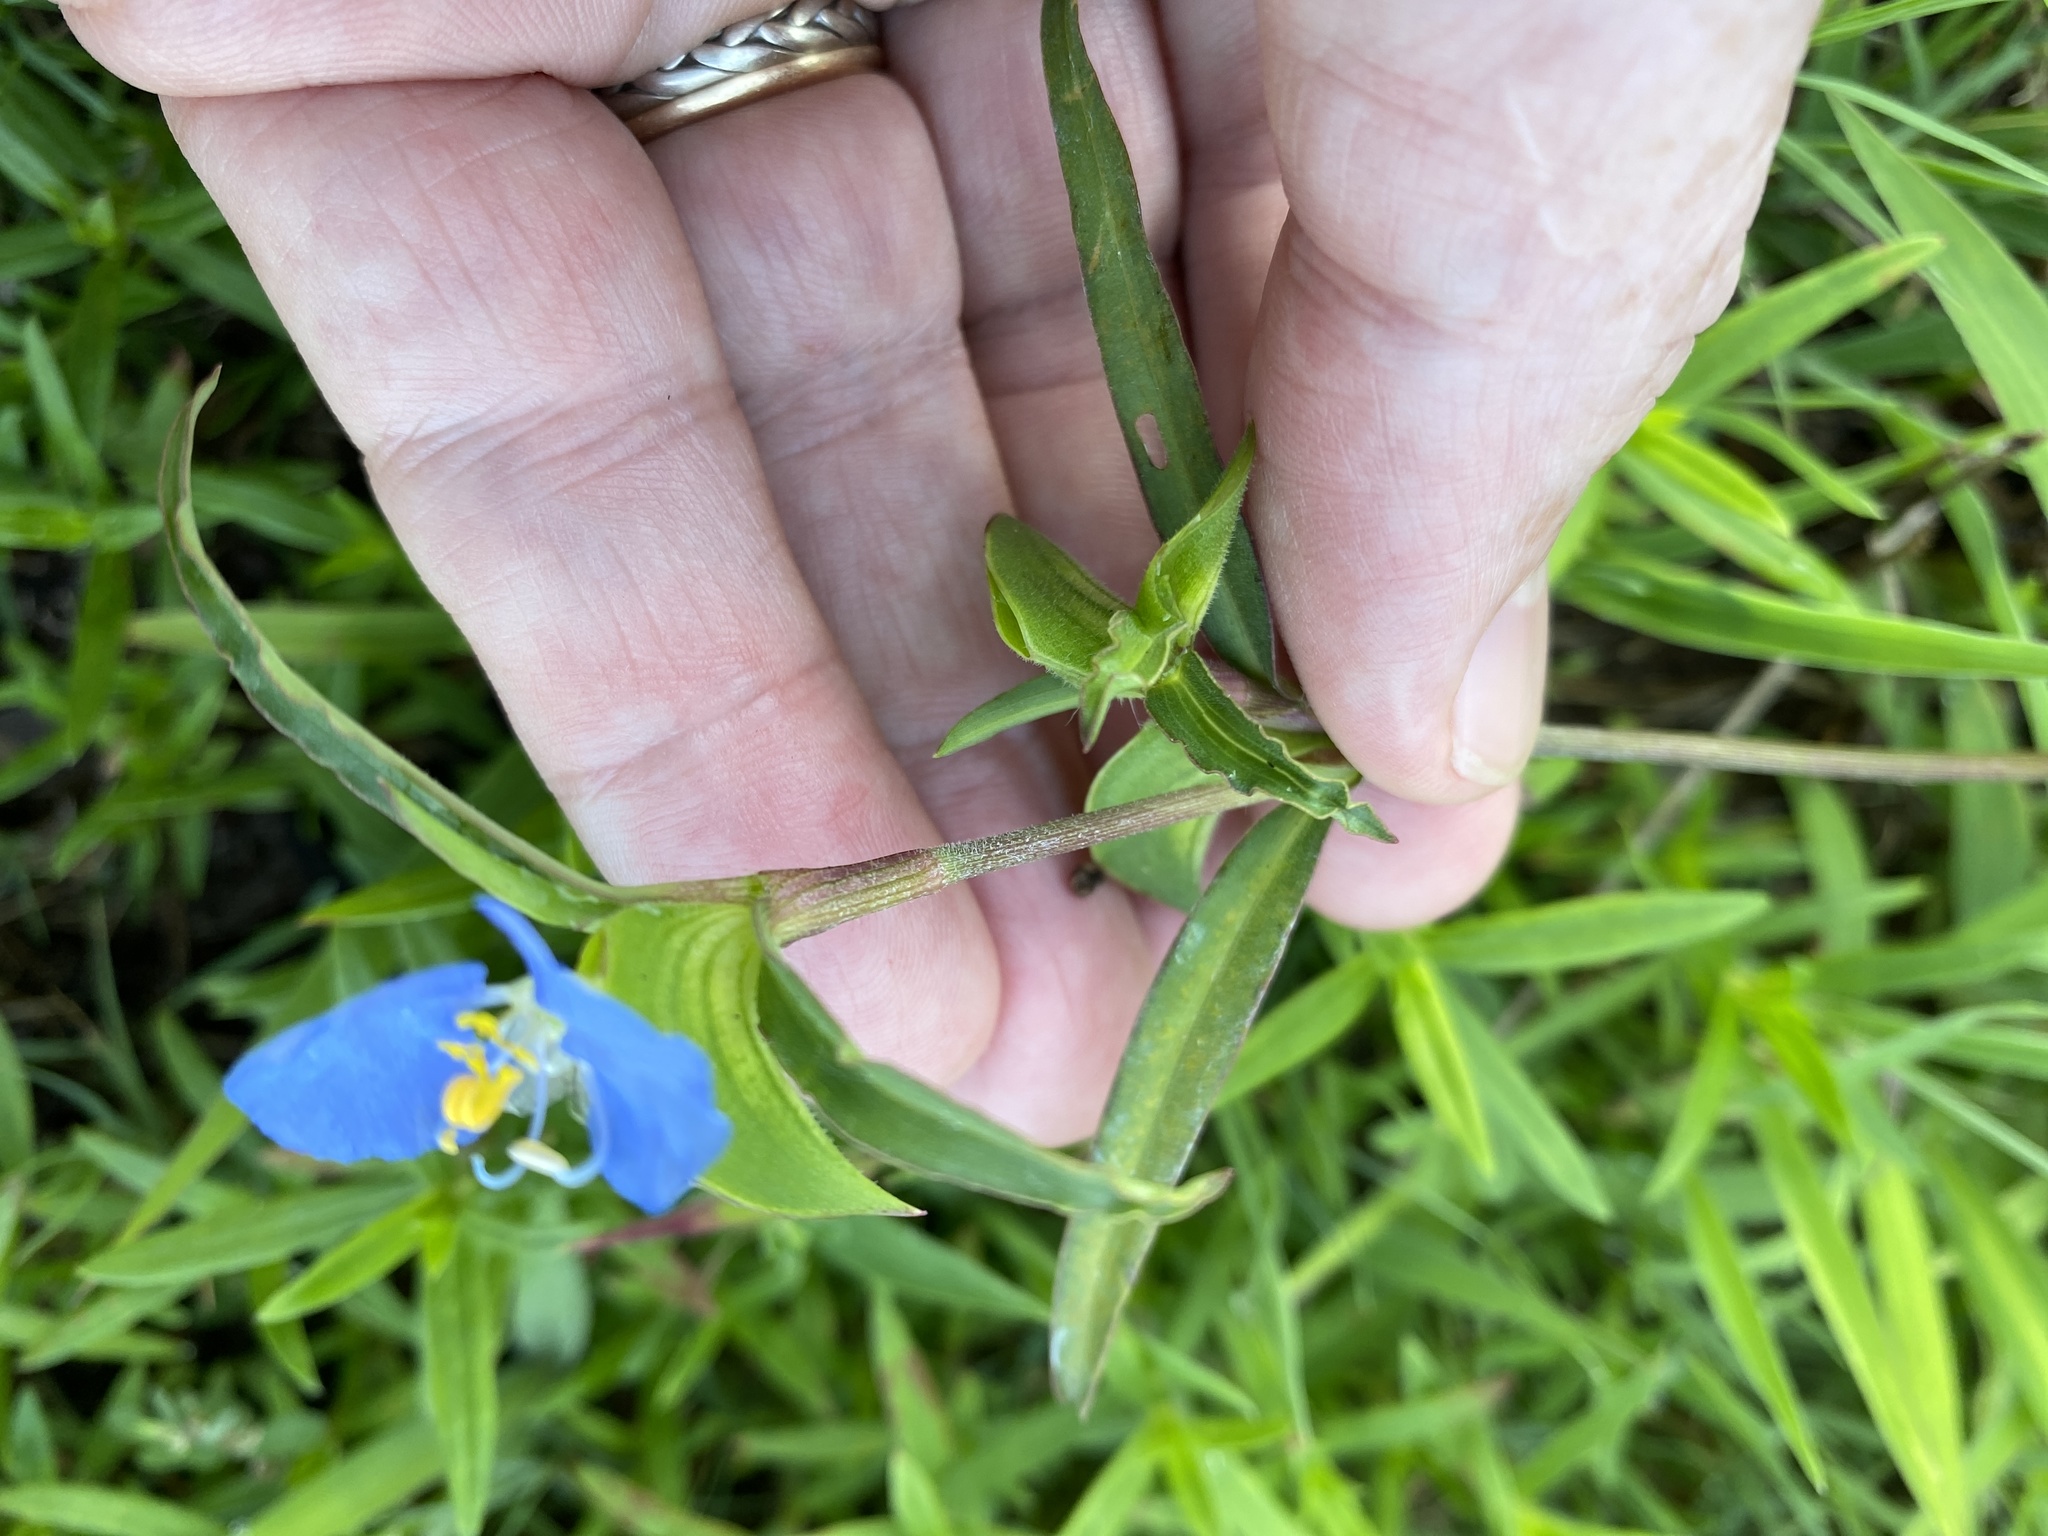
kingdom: Plantae
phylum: Tracheophyta
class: Liliopsida
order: Commelinales
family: Commelinaceae
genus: Commelina
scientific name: Commelina erecta
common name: Blousel blommetjie
